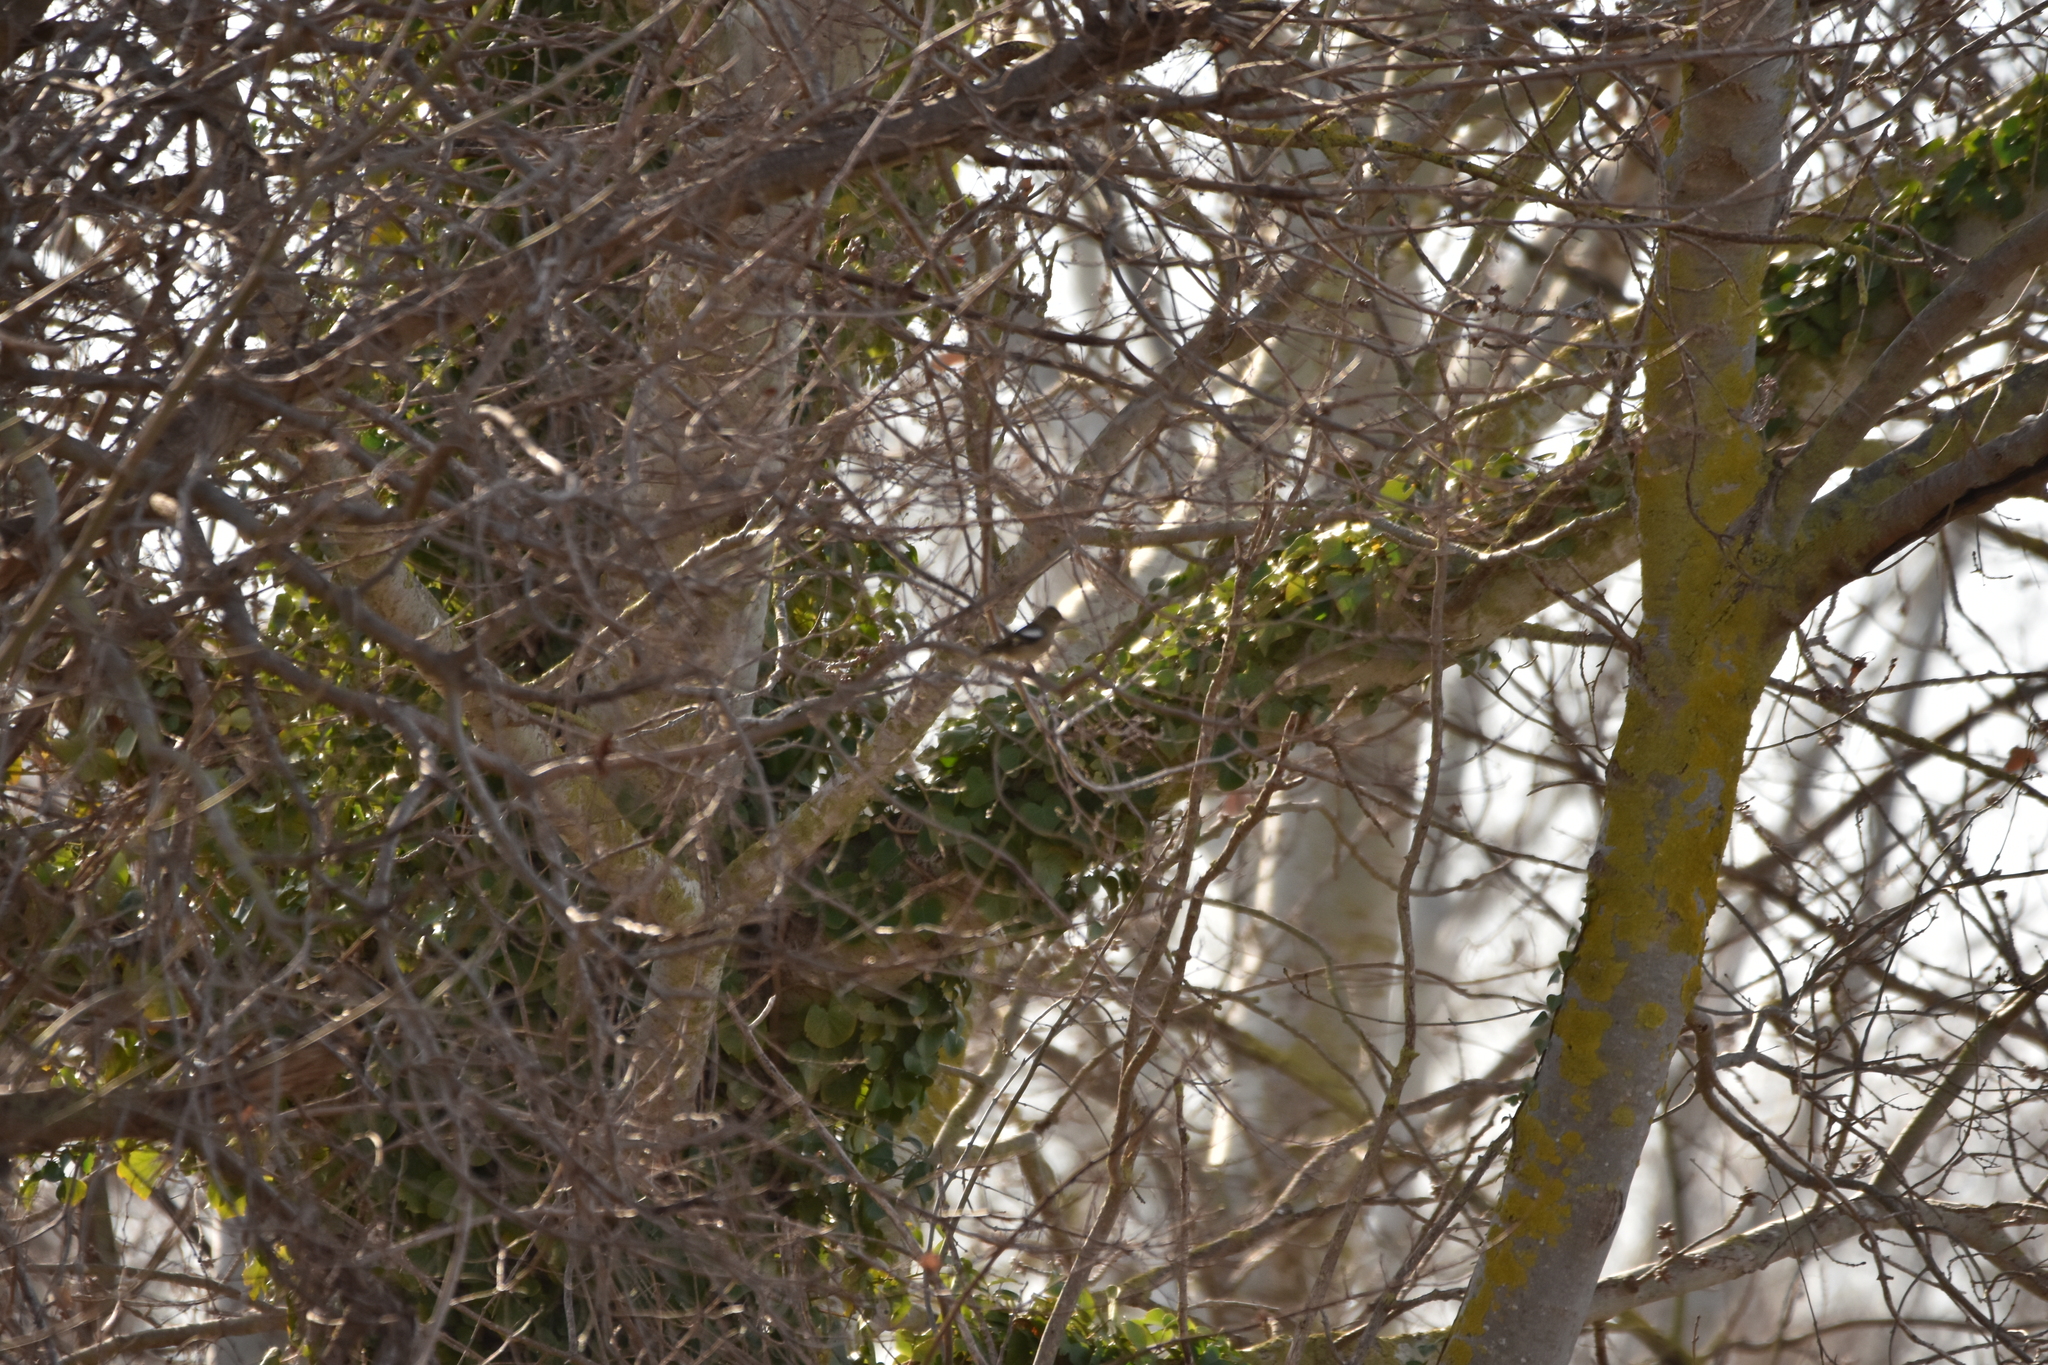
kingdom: Animalia
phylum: Chordata
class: Aves
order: Passeriformes
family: Fringillidae
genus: Fringilla
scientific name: Fringilla coelebs
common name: Common chaffinch
